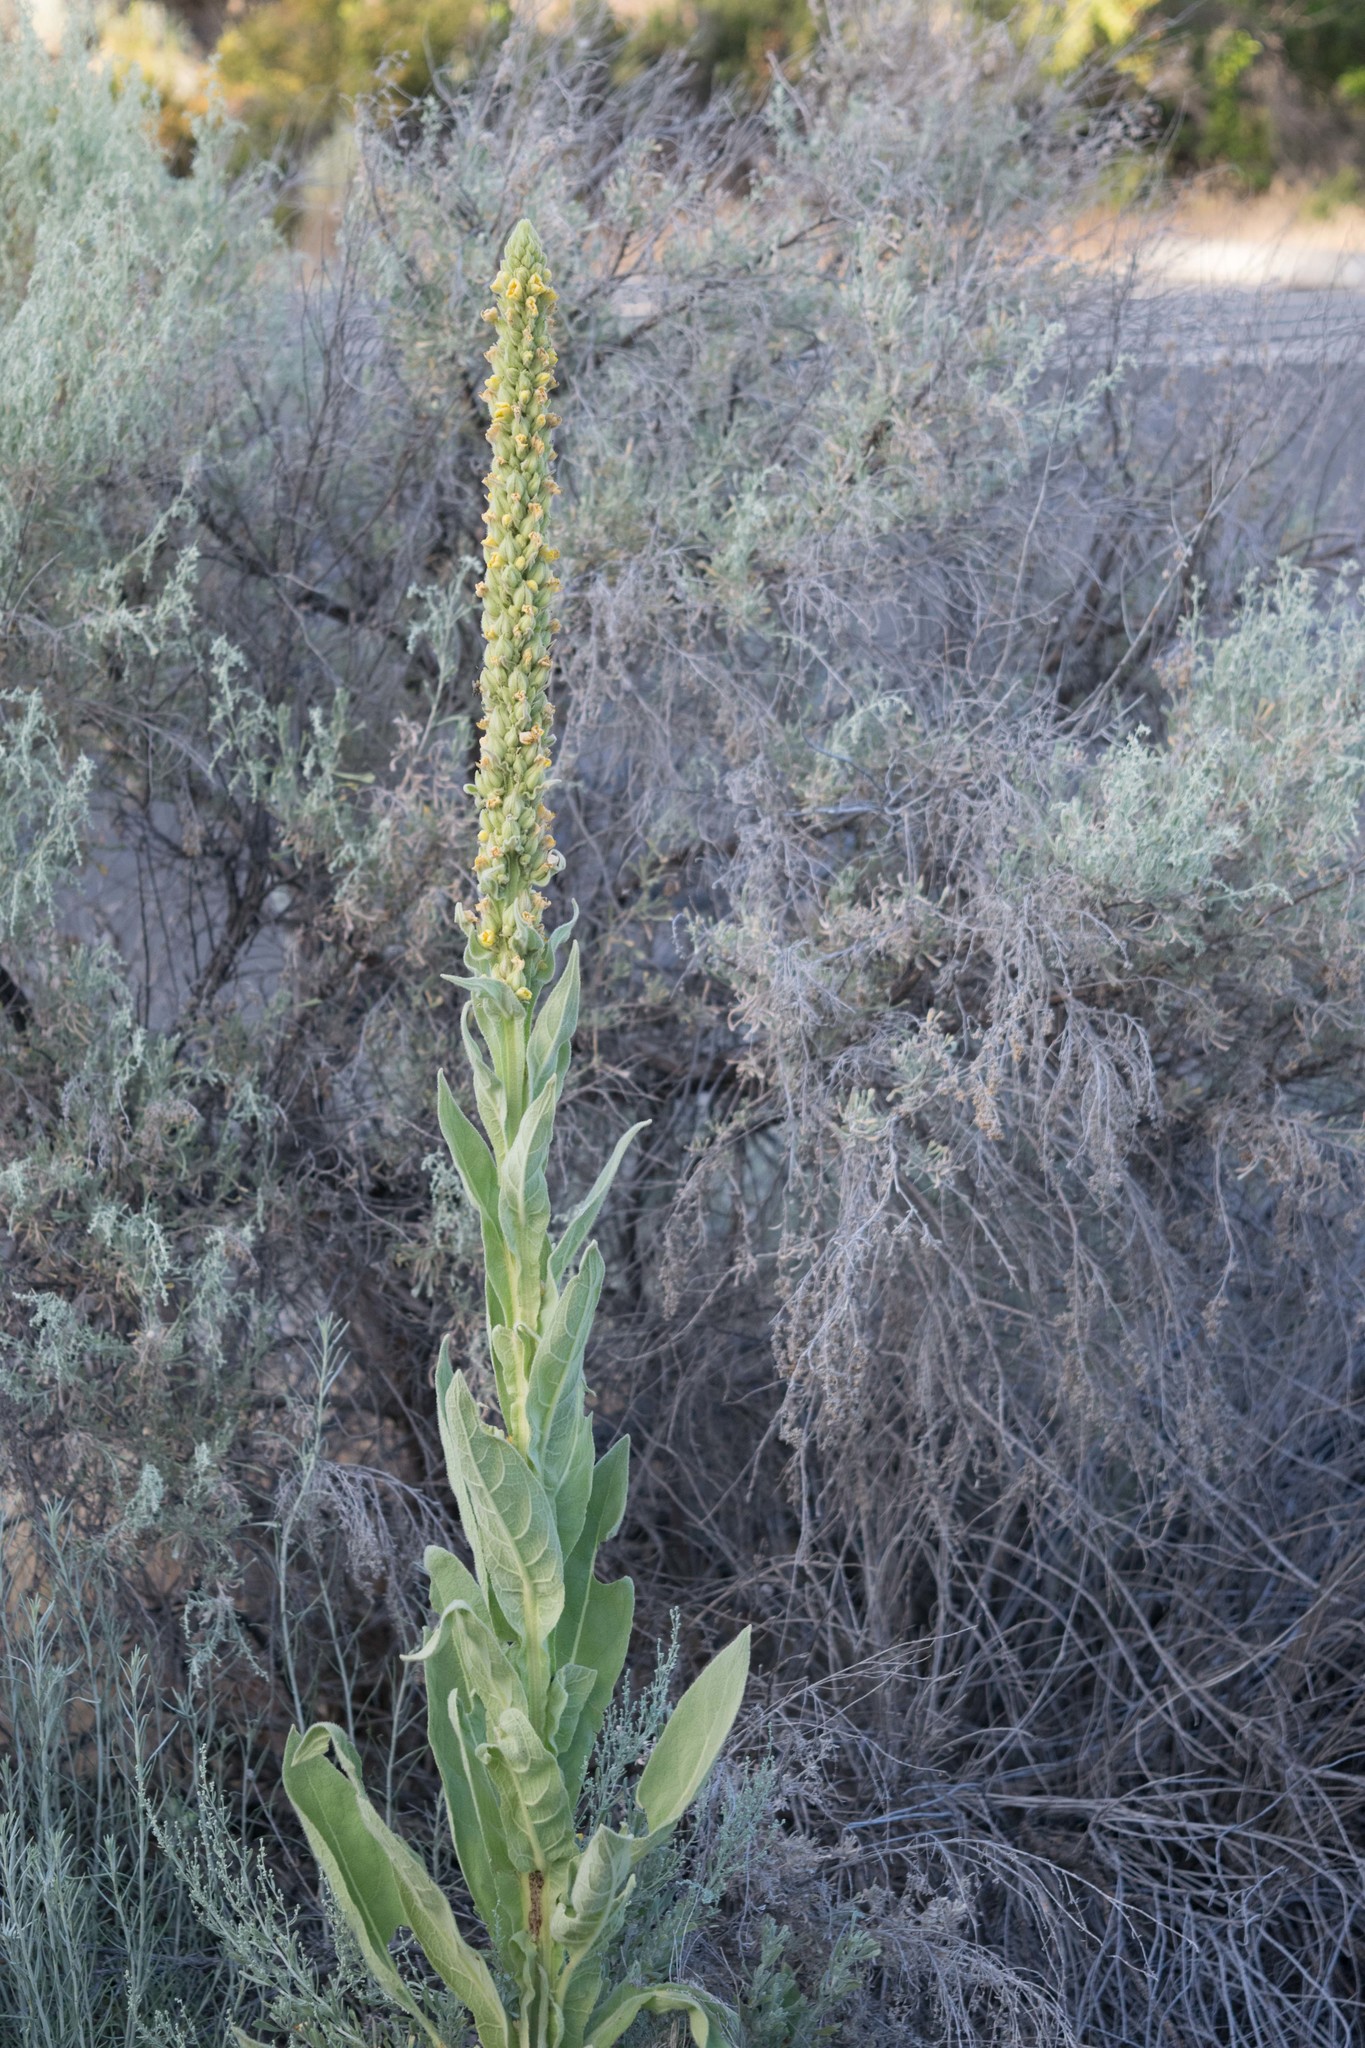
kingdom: Plantae
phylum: Tracheophyta
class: Magnoliopsida
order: Lamiales
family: Scrophulariaceae
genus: Verbascum
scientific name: Verbascum thapsus
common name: Common mullein
